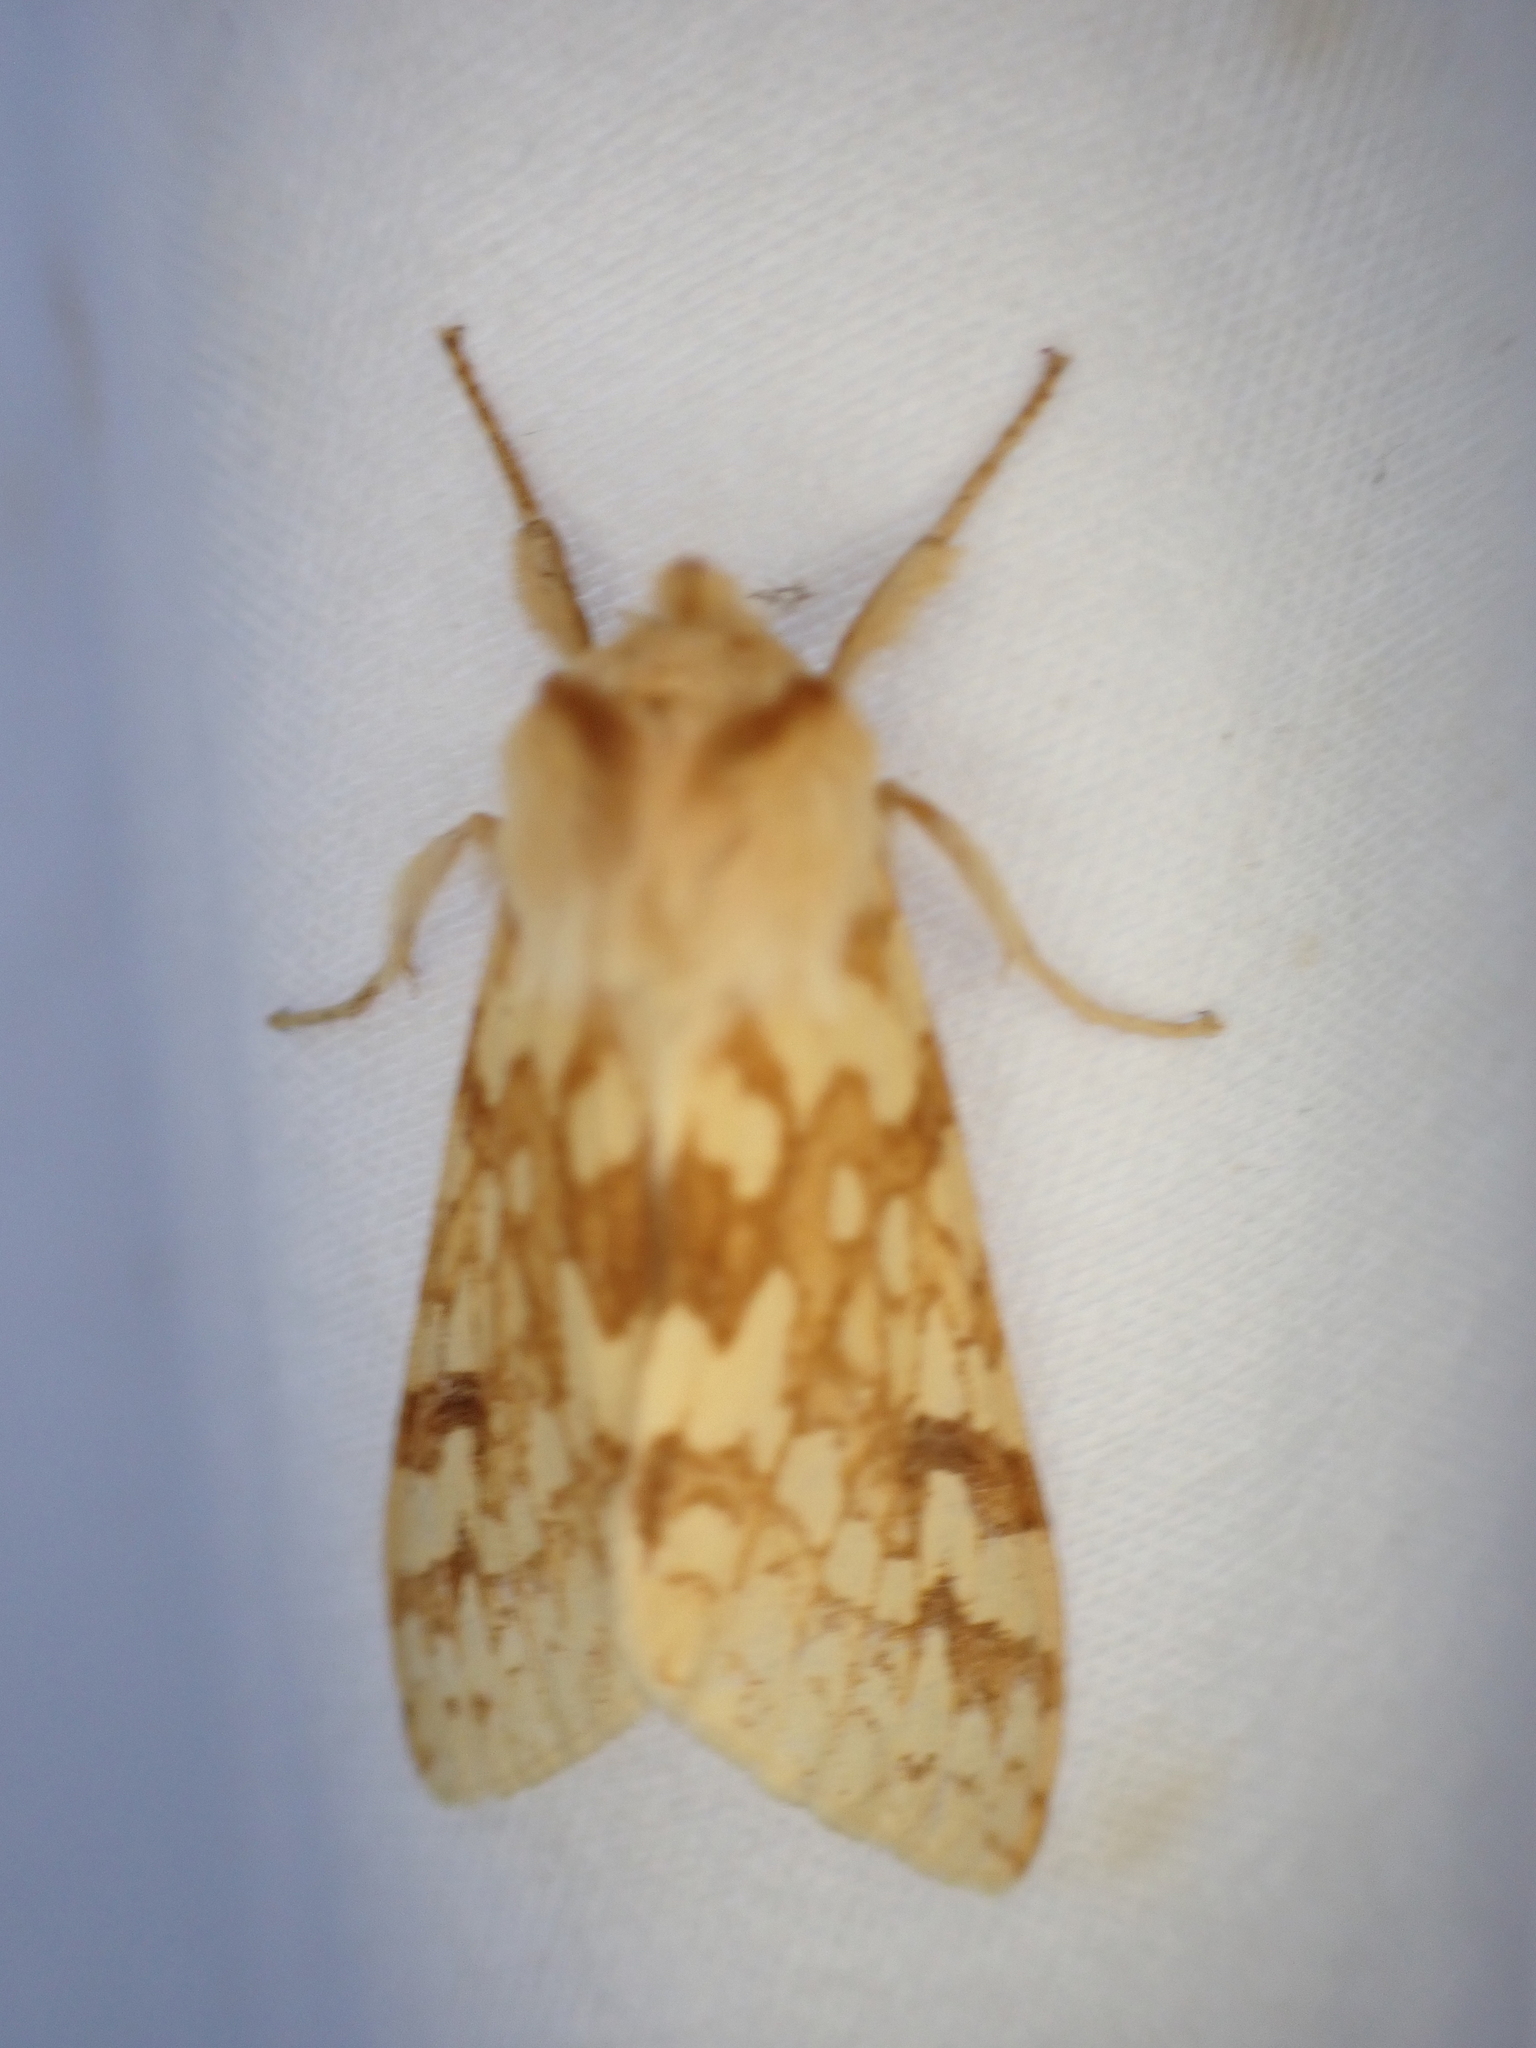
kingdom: Animalia
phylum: Arthropoda
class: Insecta
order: Lepidoptera
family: Erebidae
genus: Lophocampa
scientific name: Lophocampa maculata
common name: Spotted tussock moth
